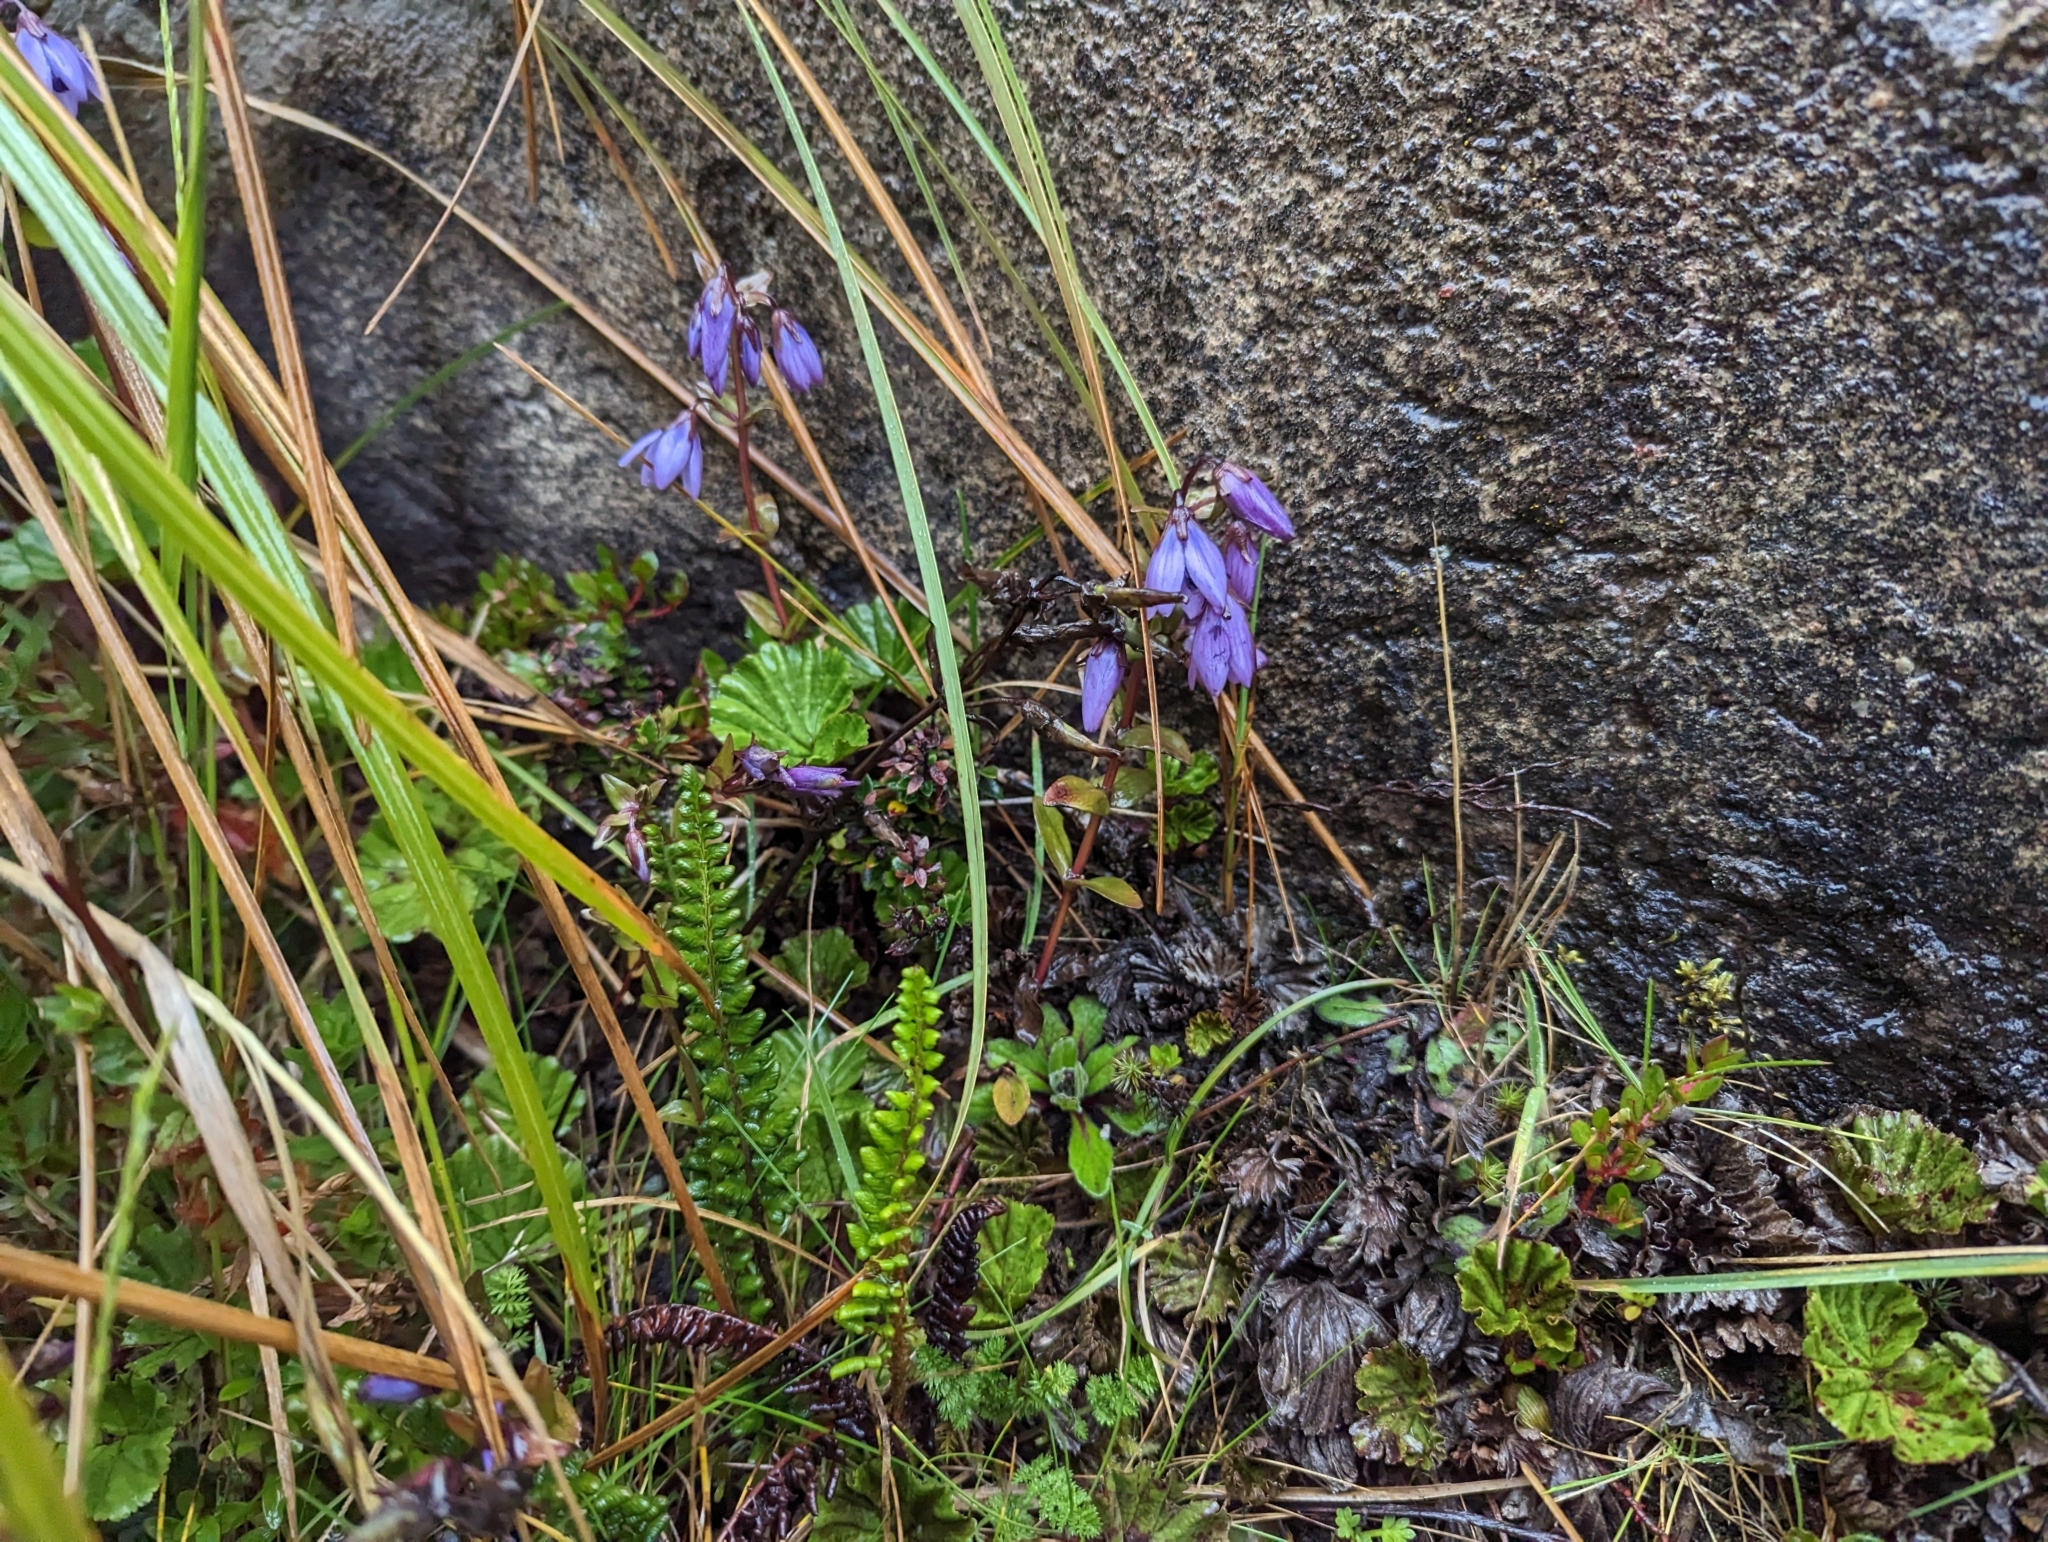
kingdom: Plantae
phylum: Tracheophyta
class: Magnoliopsida
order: Gentianales
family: Gentianaceae
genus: Gentianella
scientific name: Gentianella rapunculoides
